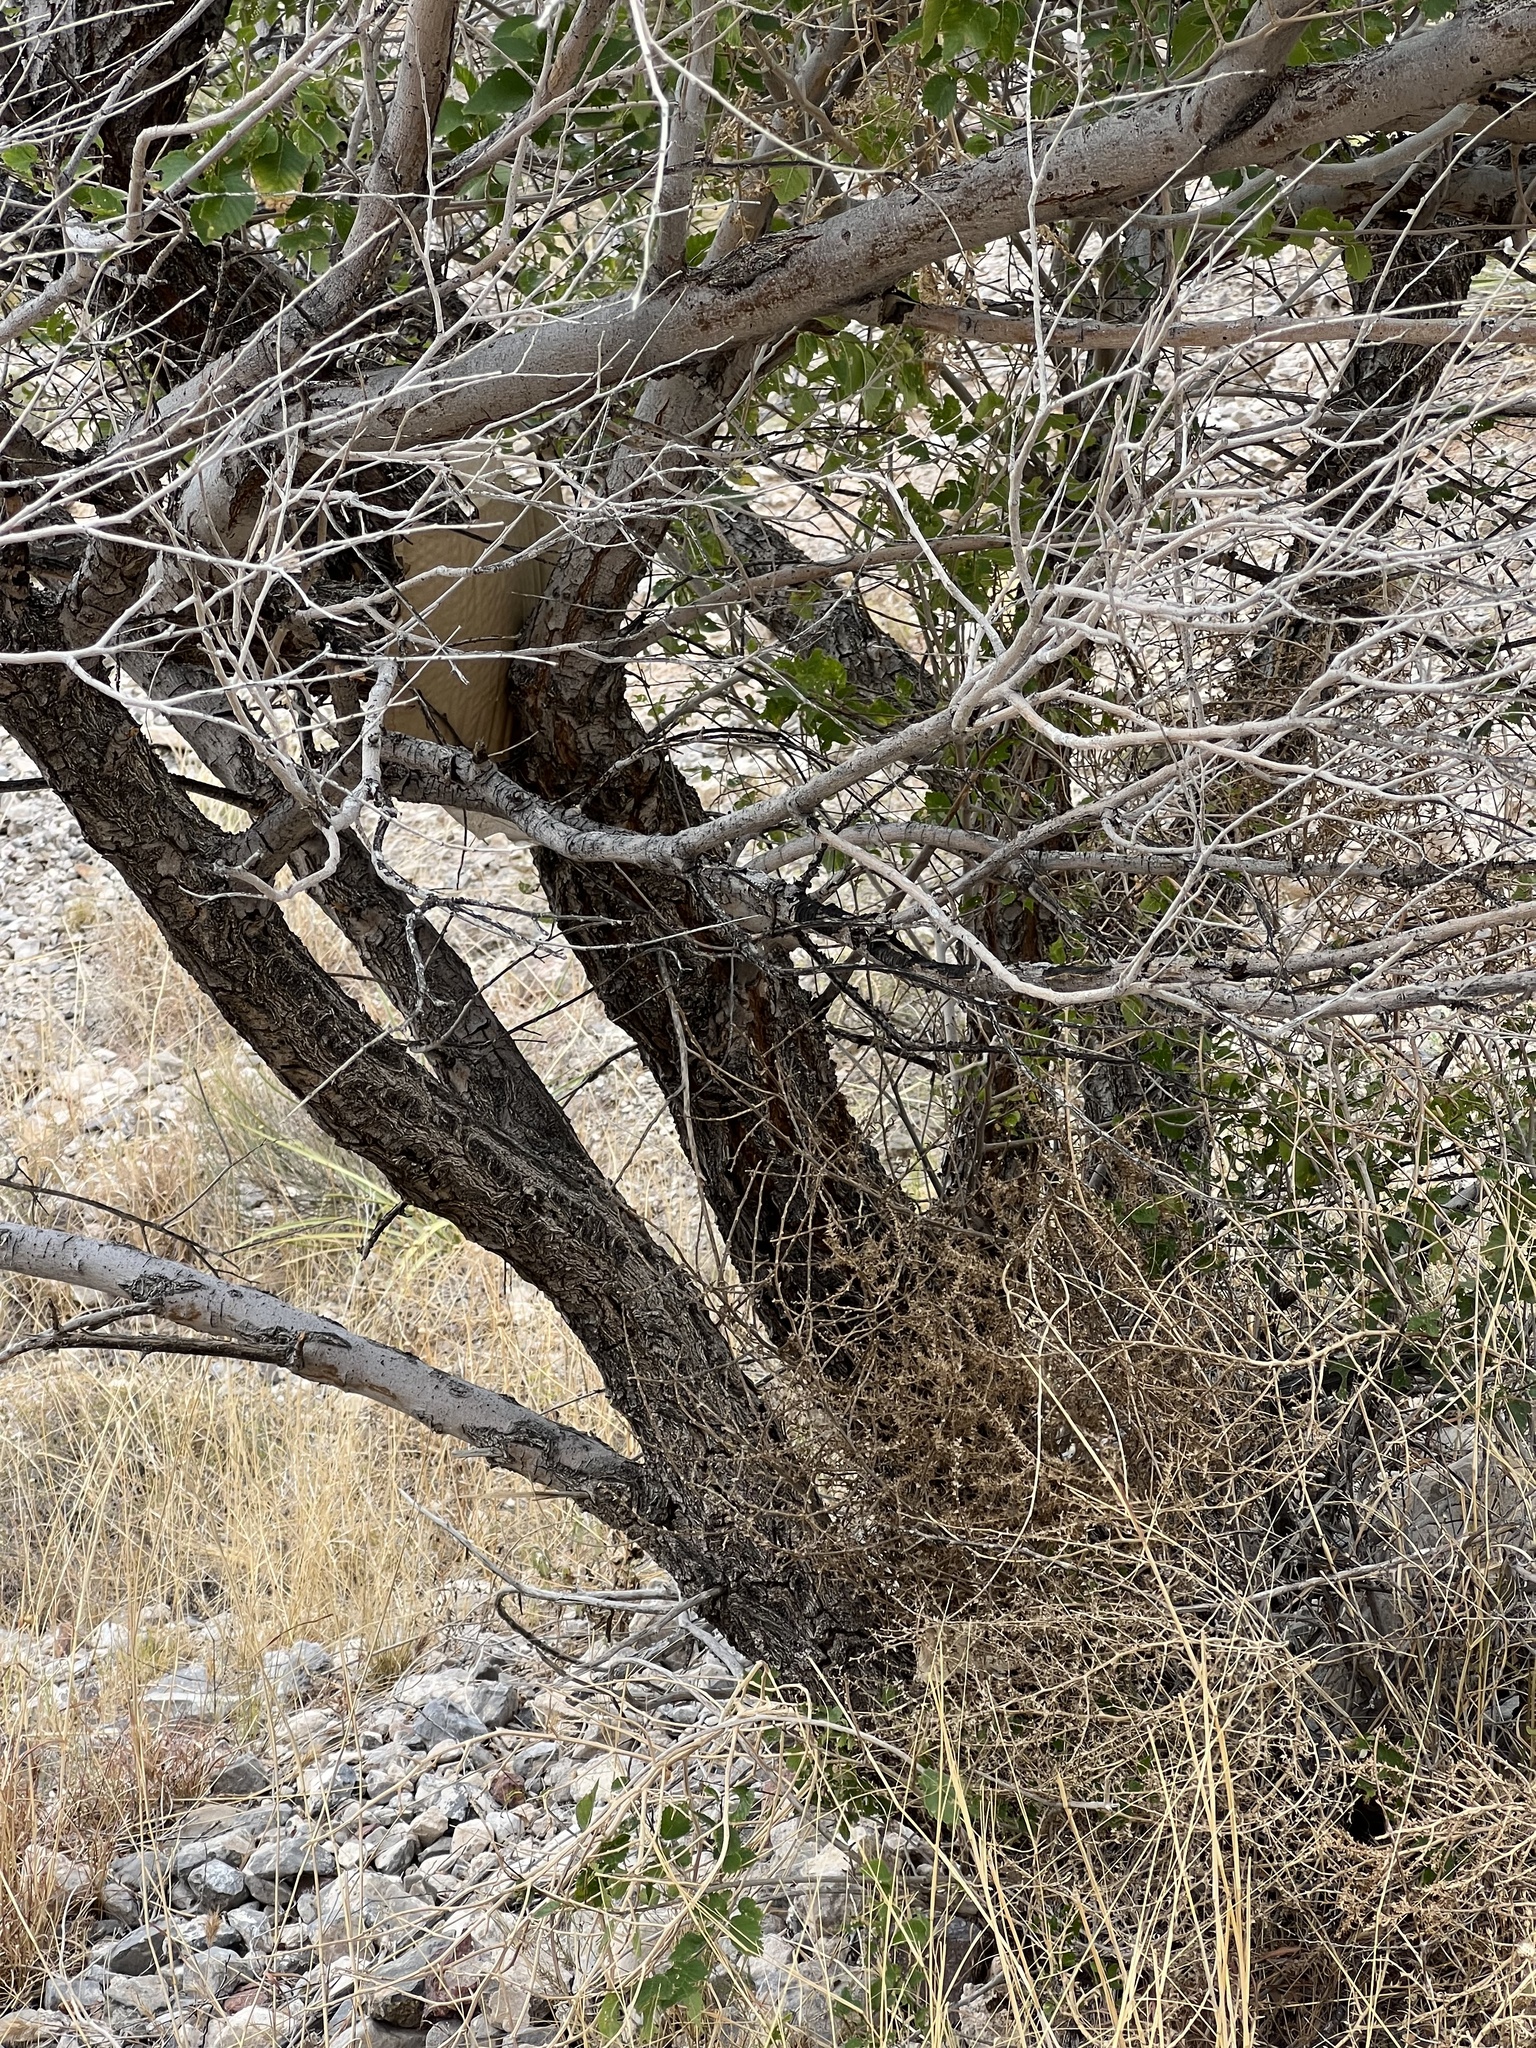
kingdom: Plantae
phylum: Tracheophyta
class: Magnoliopsida
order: Rosales
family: Ulmaceae
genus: Ulmus
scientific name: Ulmus pumila
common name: Siberian elm
